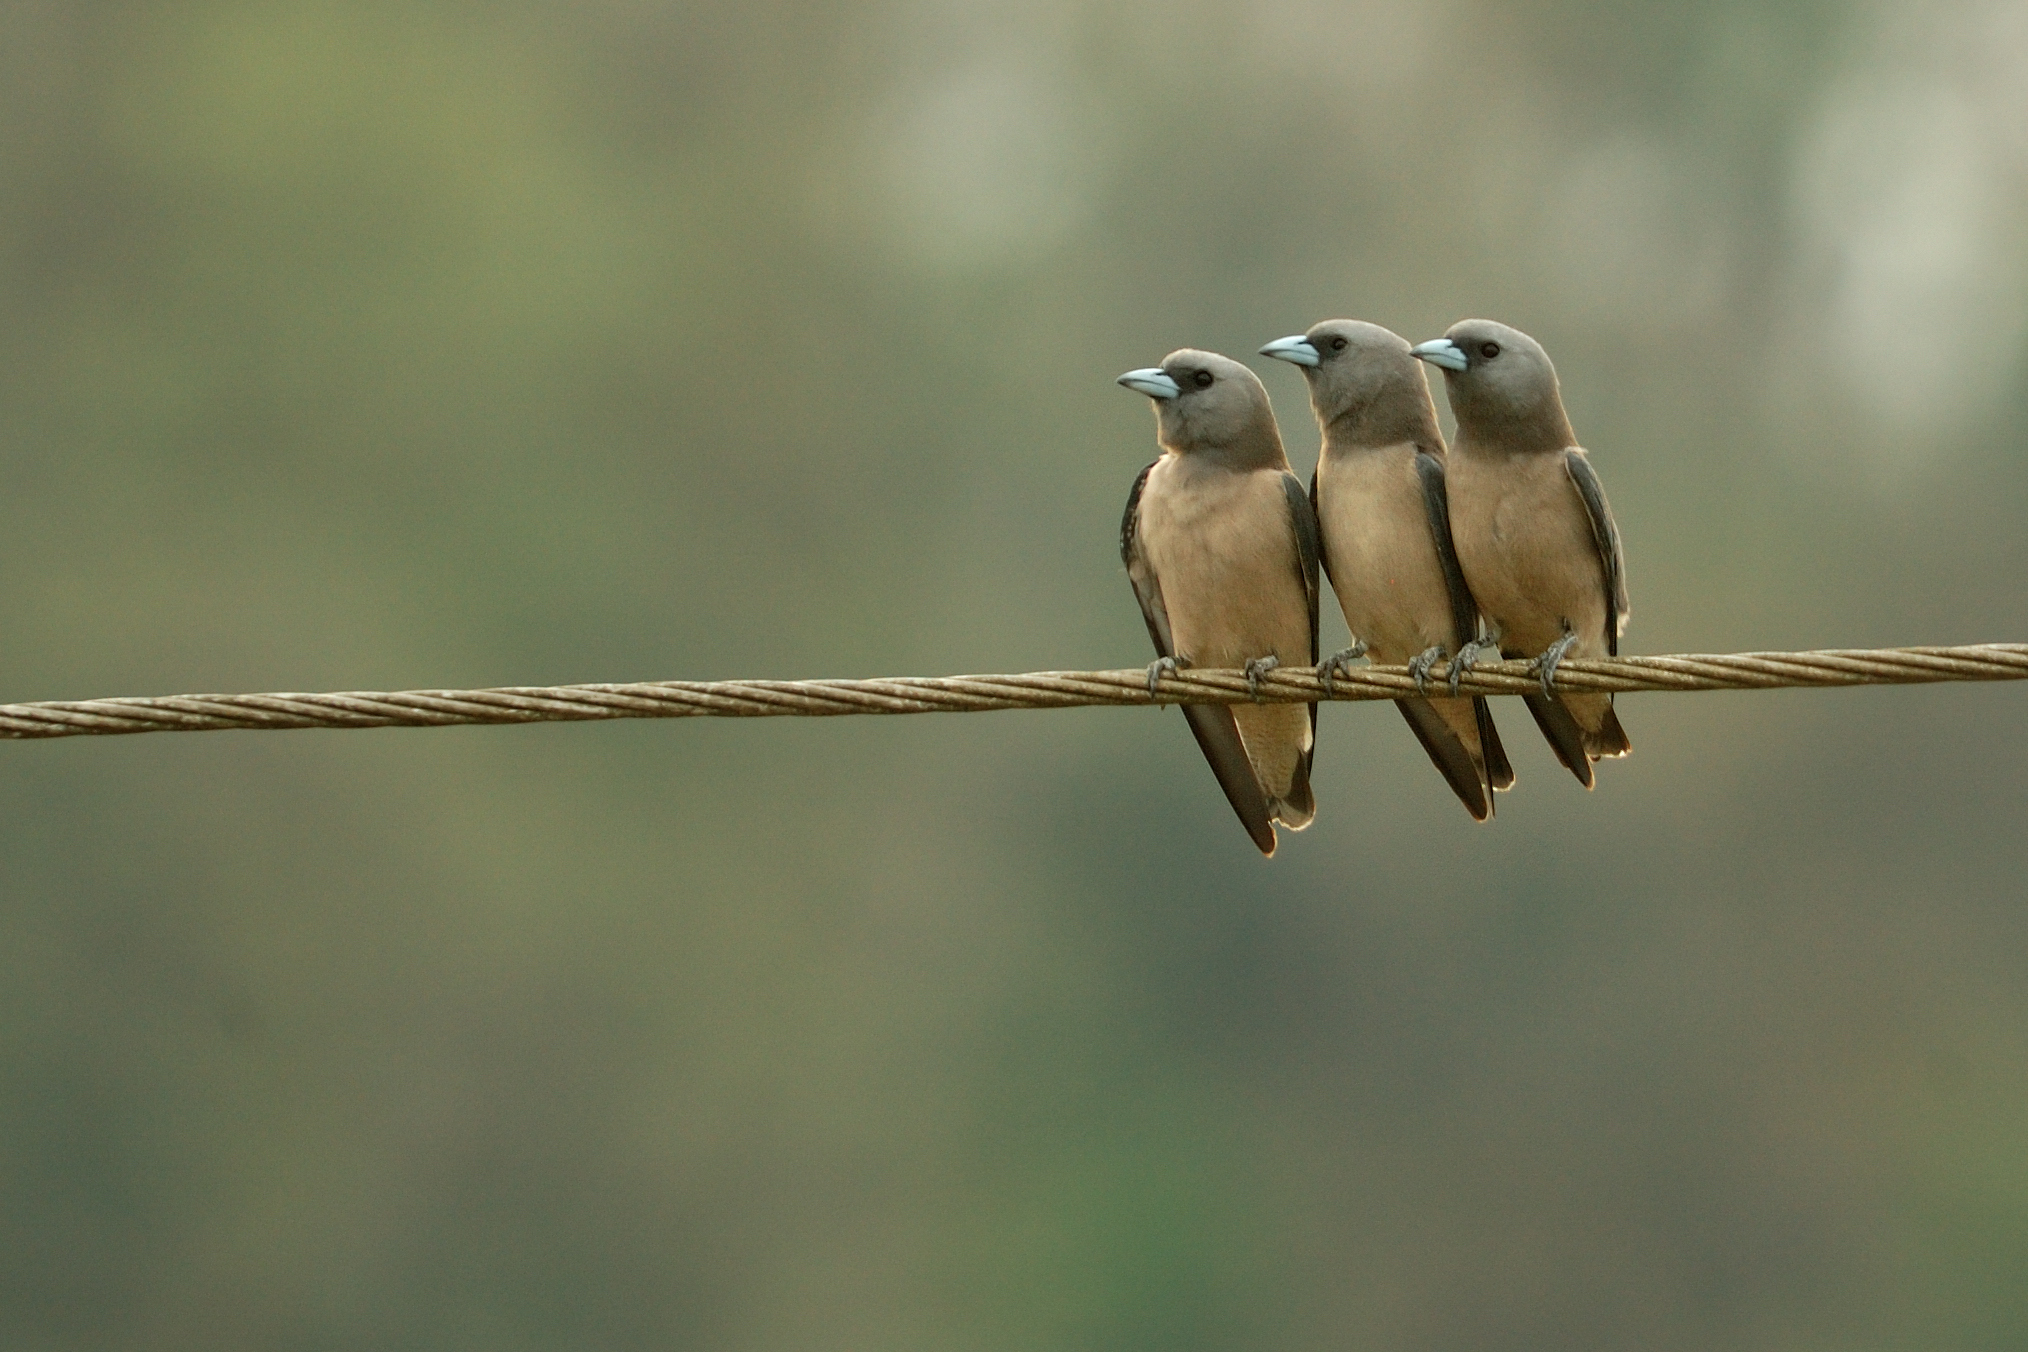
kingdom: Animalia
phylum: Chordata
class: Aves
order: Passeriformes
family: Artamidae
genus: Artamus
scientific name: Artamus fuscus
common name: Ashy woodswallow
